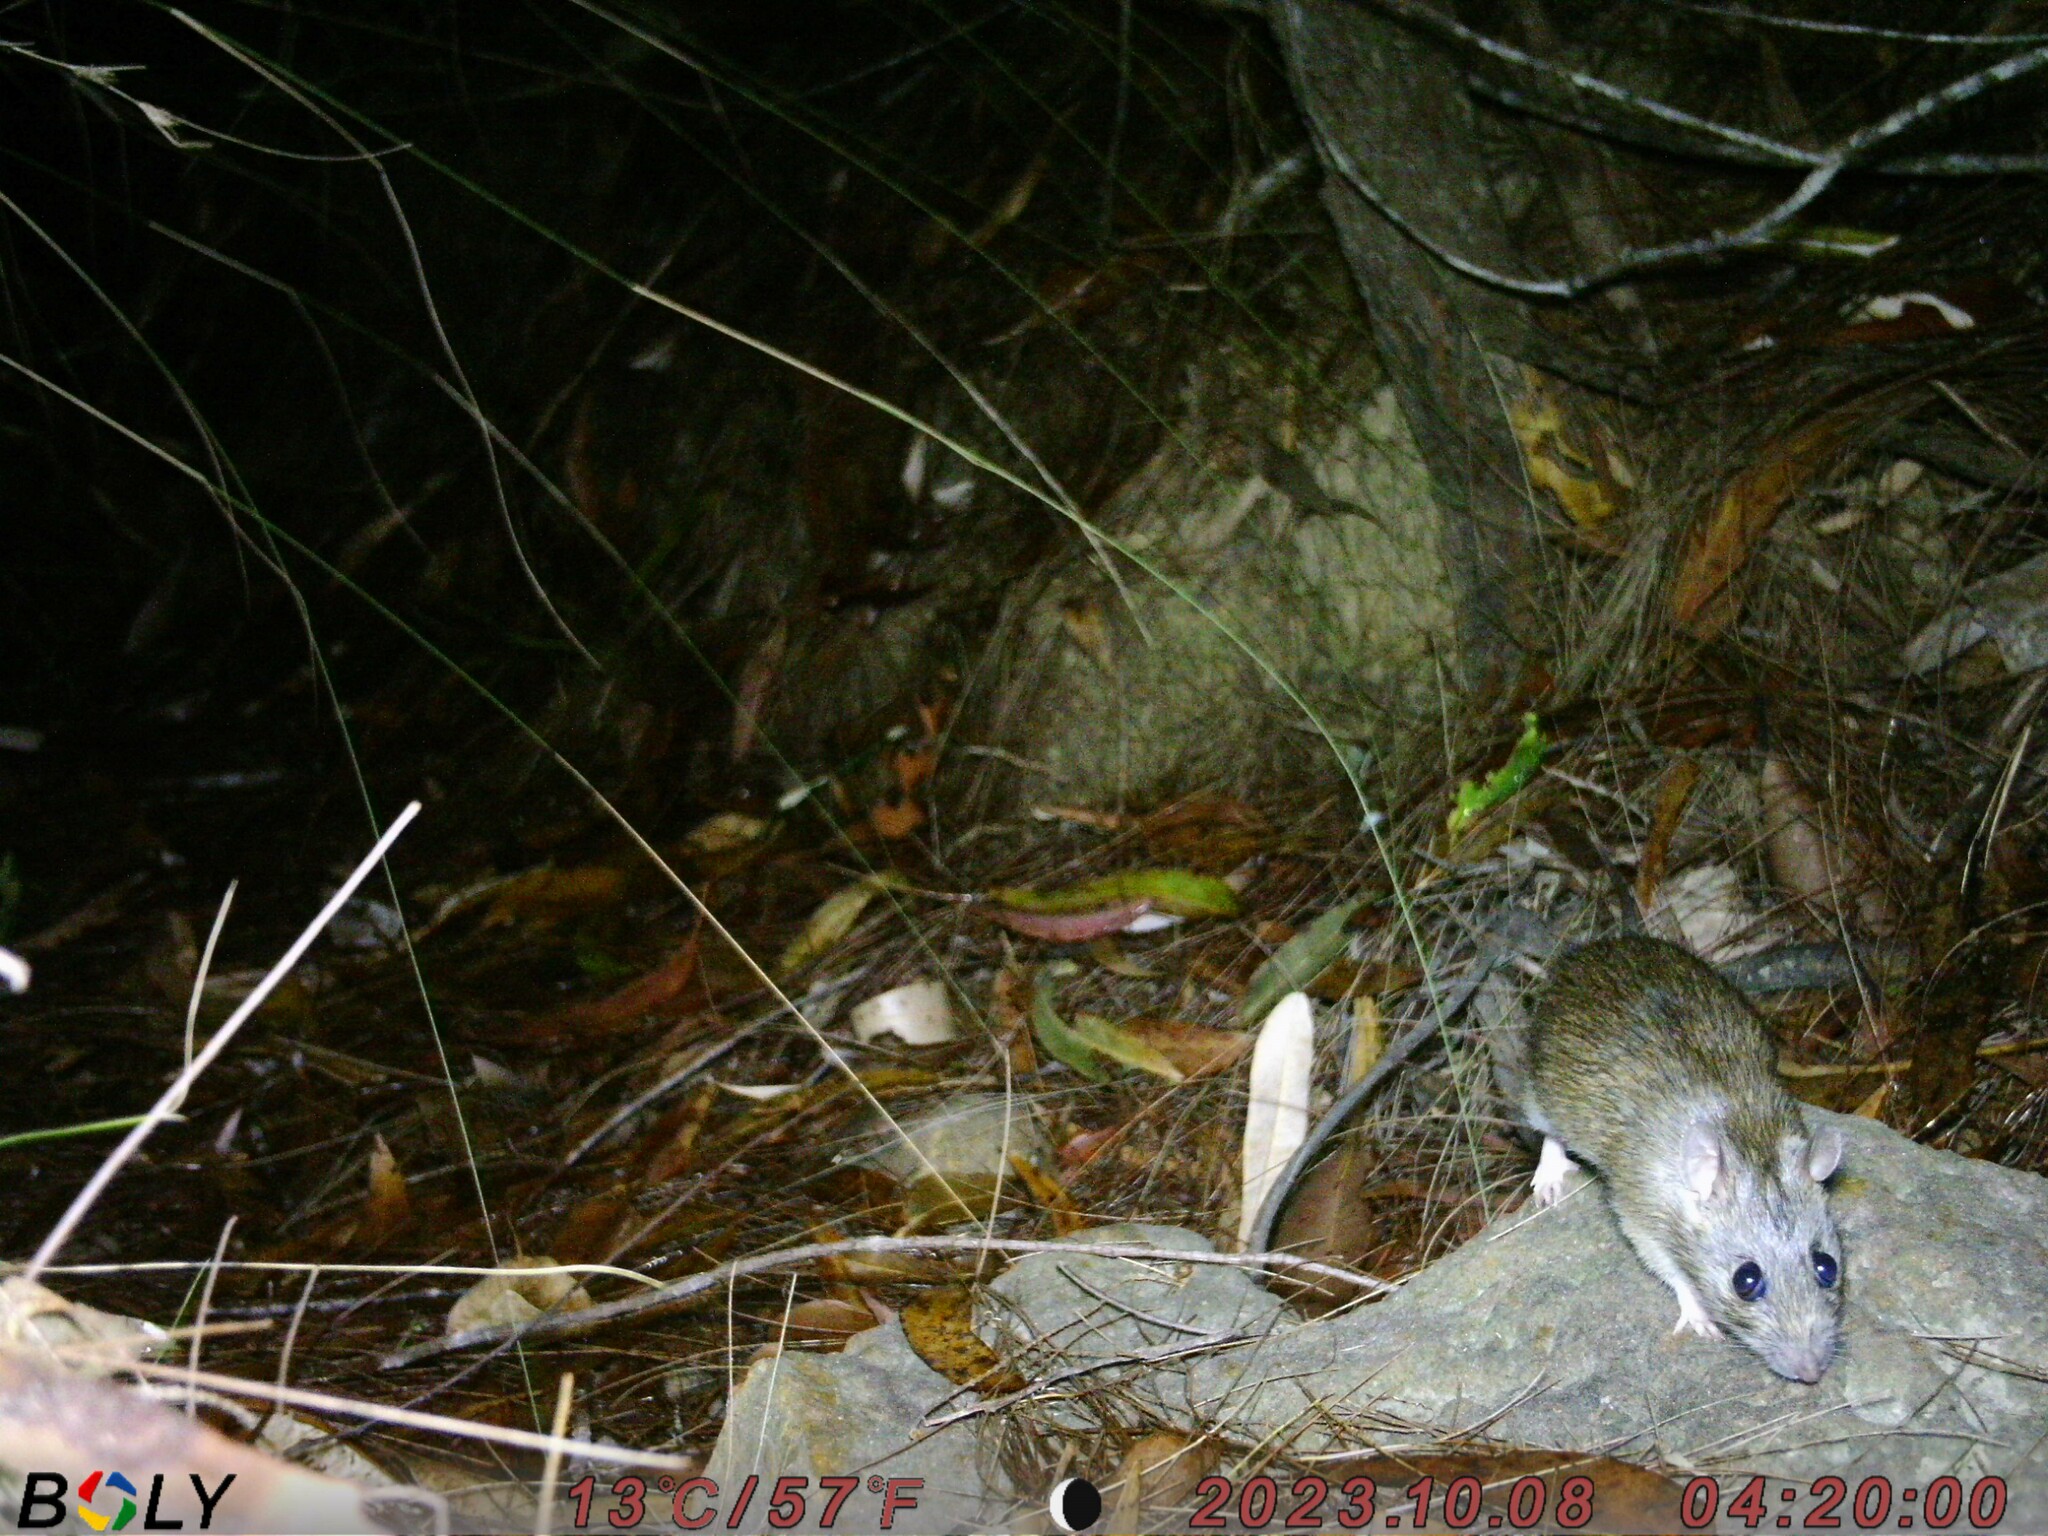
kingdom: Animalia
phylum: Chordata
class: Mammalia
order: Rodentia
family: Muridae
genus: Rattus
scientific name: Rattus tunneyi
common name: Australian pale field rat
